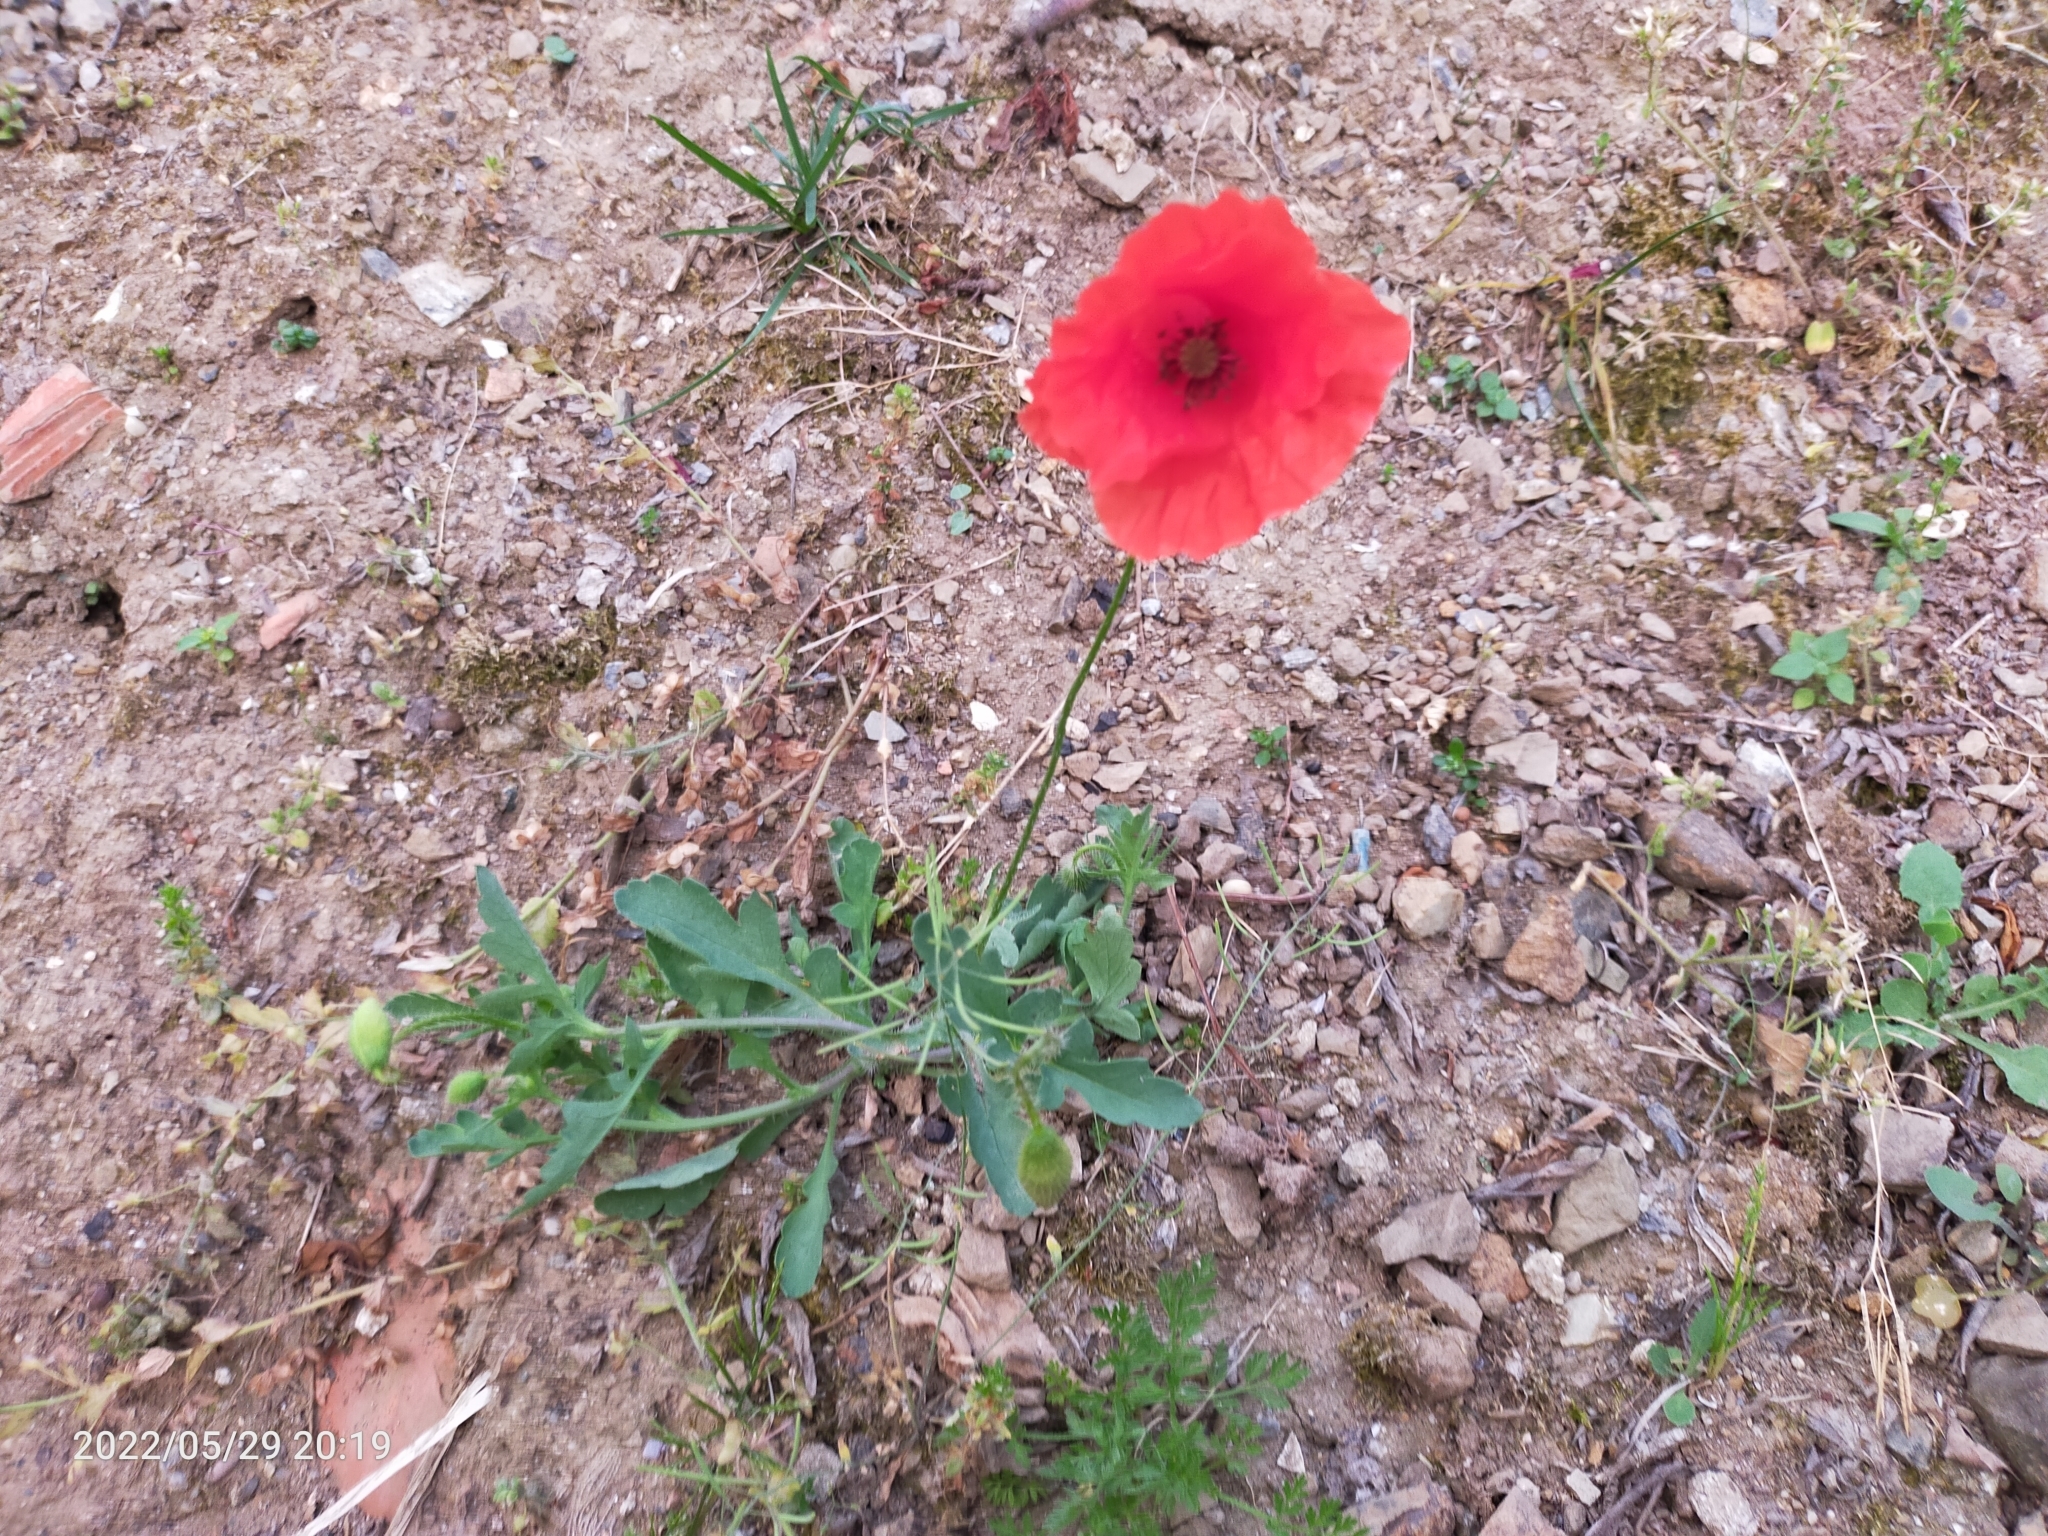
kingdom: Plantae
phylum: Tracheophyta
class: Magnoliopsida
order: Ranunculales
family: Papaveraceae
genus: Papaver
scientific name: Papaver dubium
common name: Long-headed poppy
